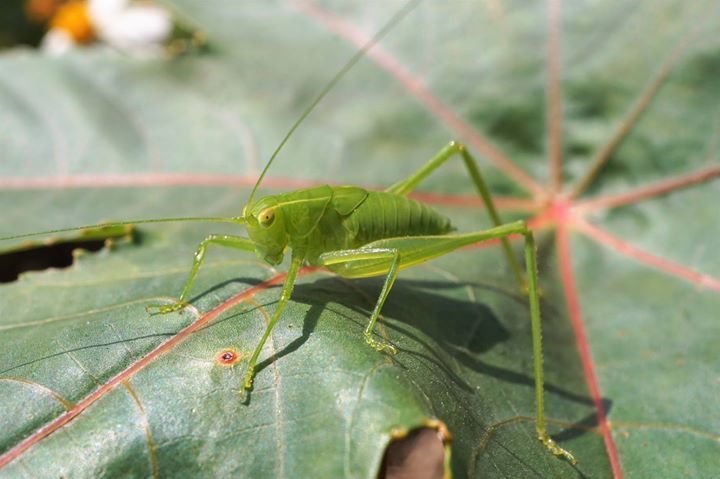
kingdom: Animalia
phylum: Arthropoda
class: Insecta
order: Orthoptera
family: Tettigoniidae
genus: Turpilia
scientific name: Turpilia rostrata
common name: Narrow-beaked katydid
